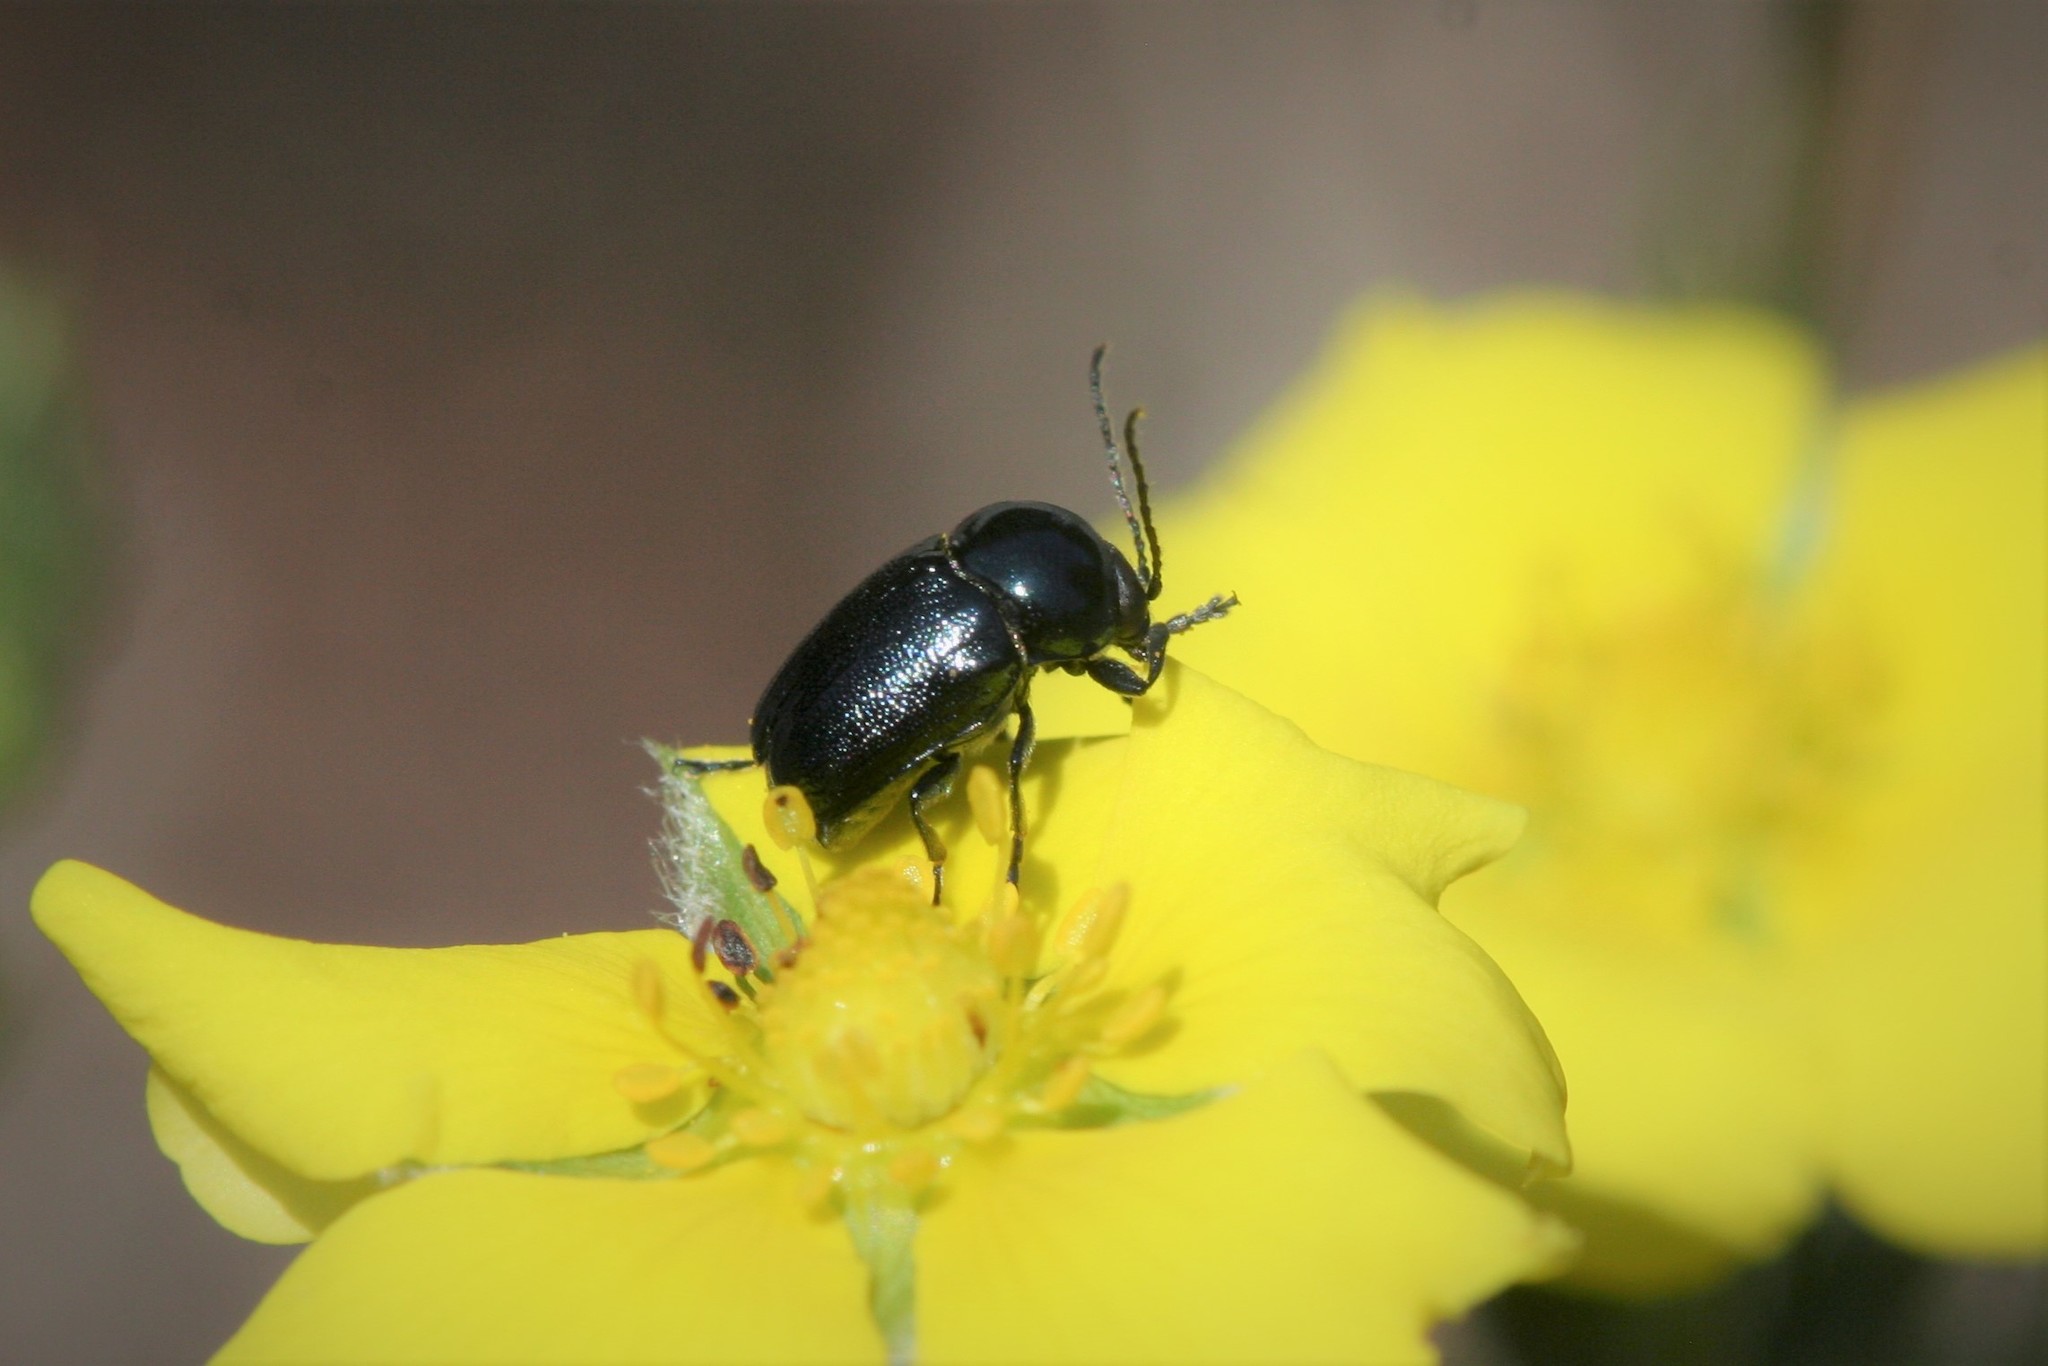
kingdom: Animalia
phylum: Arthropoda
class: Insecta
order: Coleoptera
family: Chrysomelidae
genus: Cryptocephalus
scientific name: Cryptocephalus violaceus
